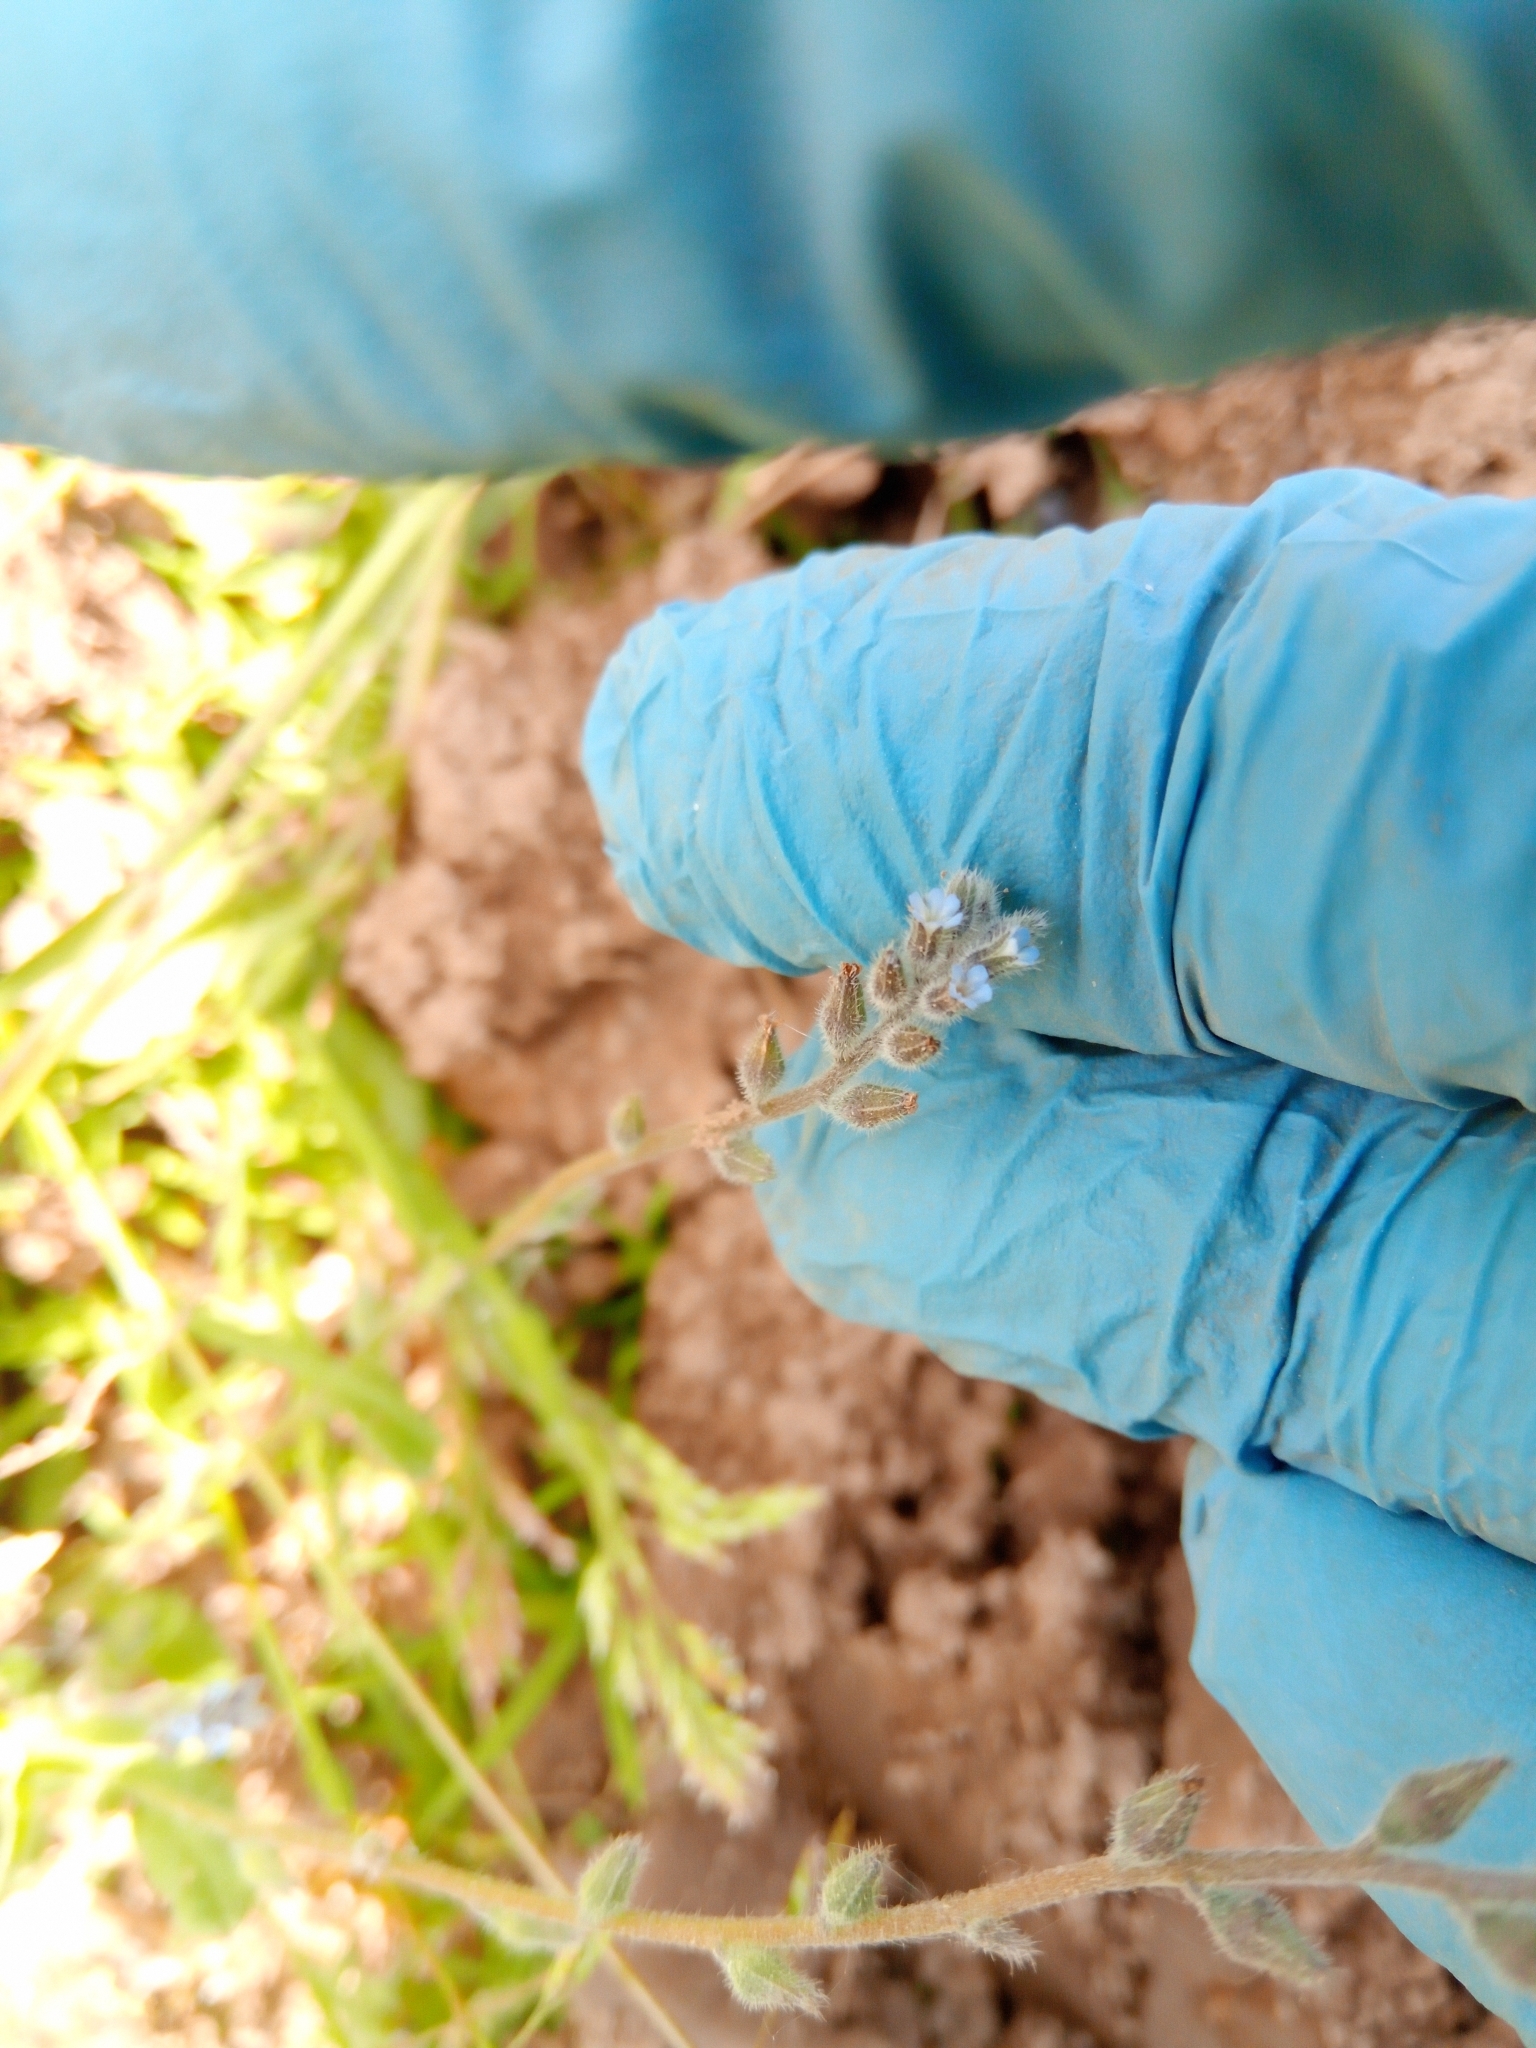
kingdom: Plantae
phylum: Tracheophyta
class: Magnoliopsida
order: Boraginales
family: Boraginaceae
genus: Myosotis
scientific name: Myosotis stricta
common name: Strict forget-me-not
